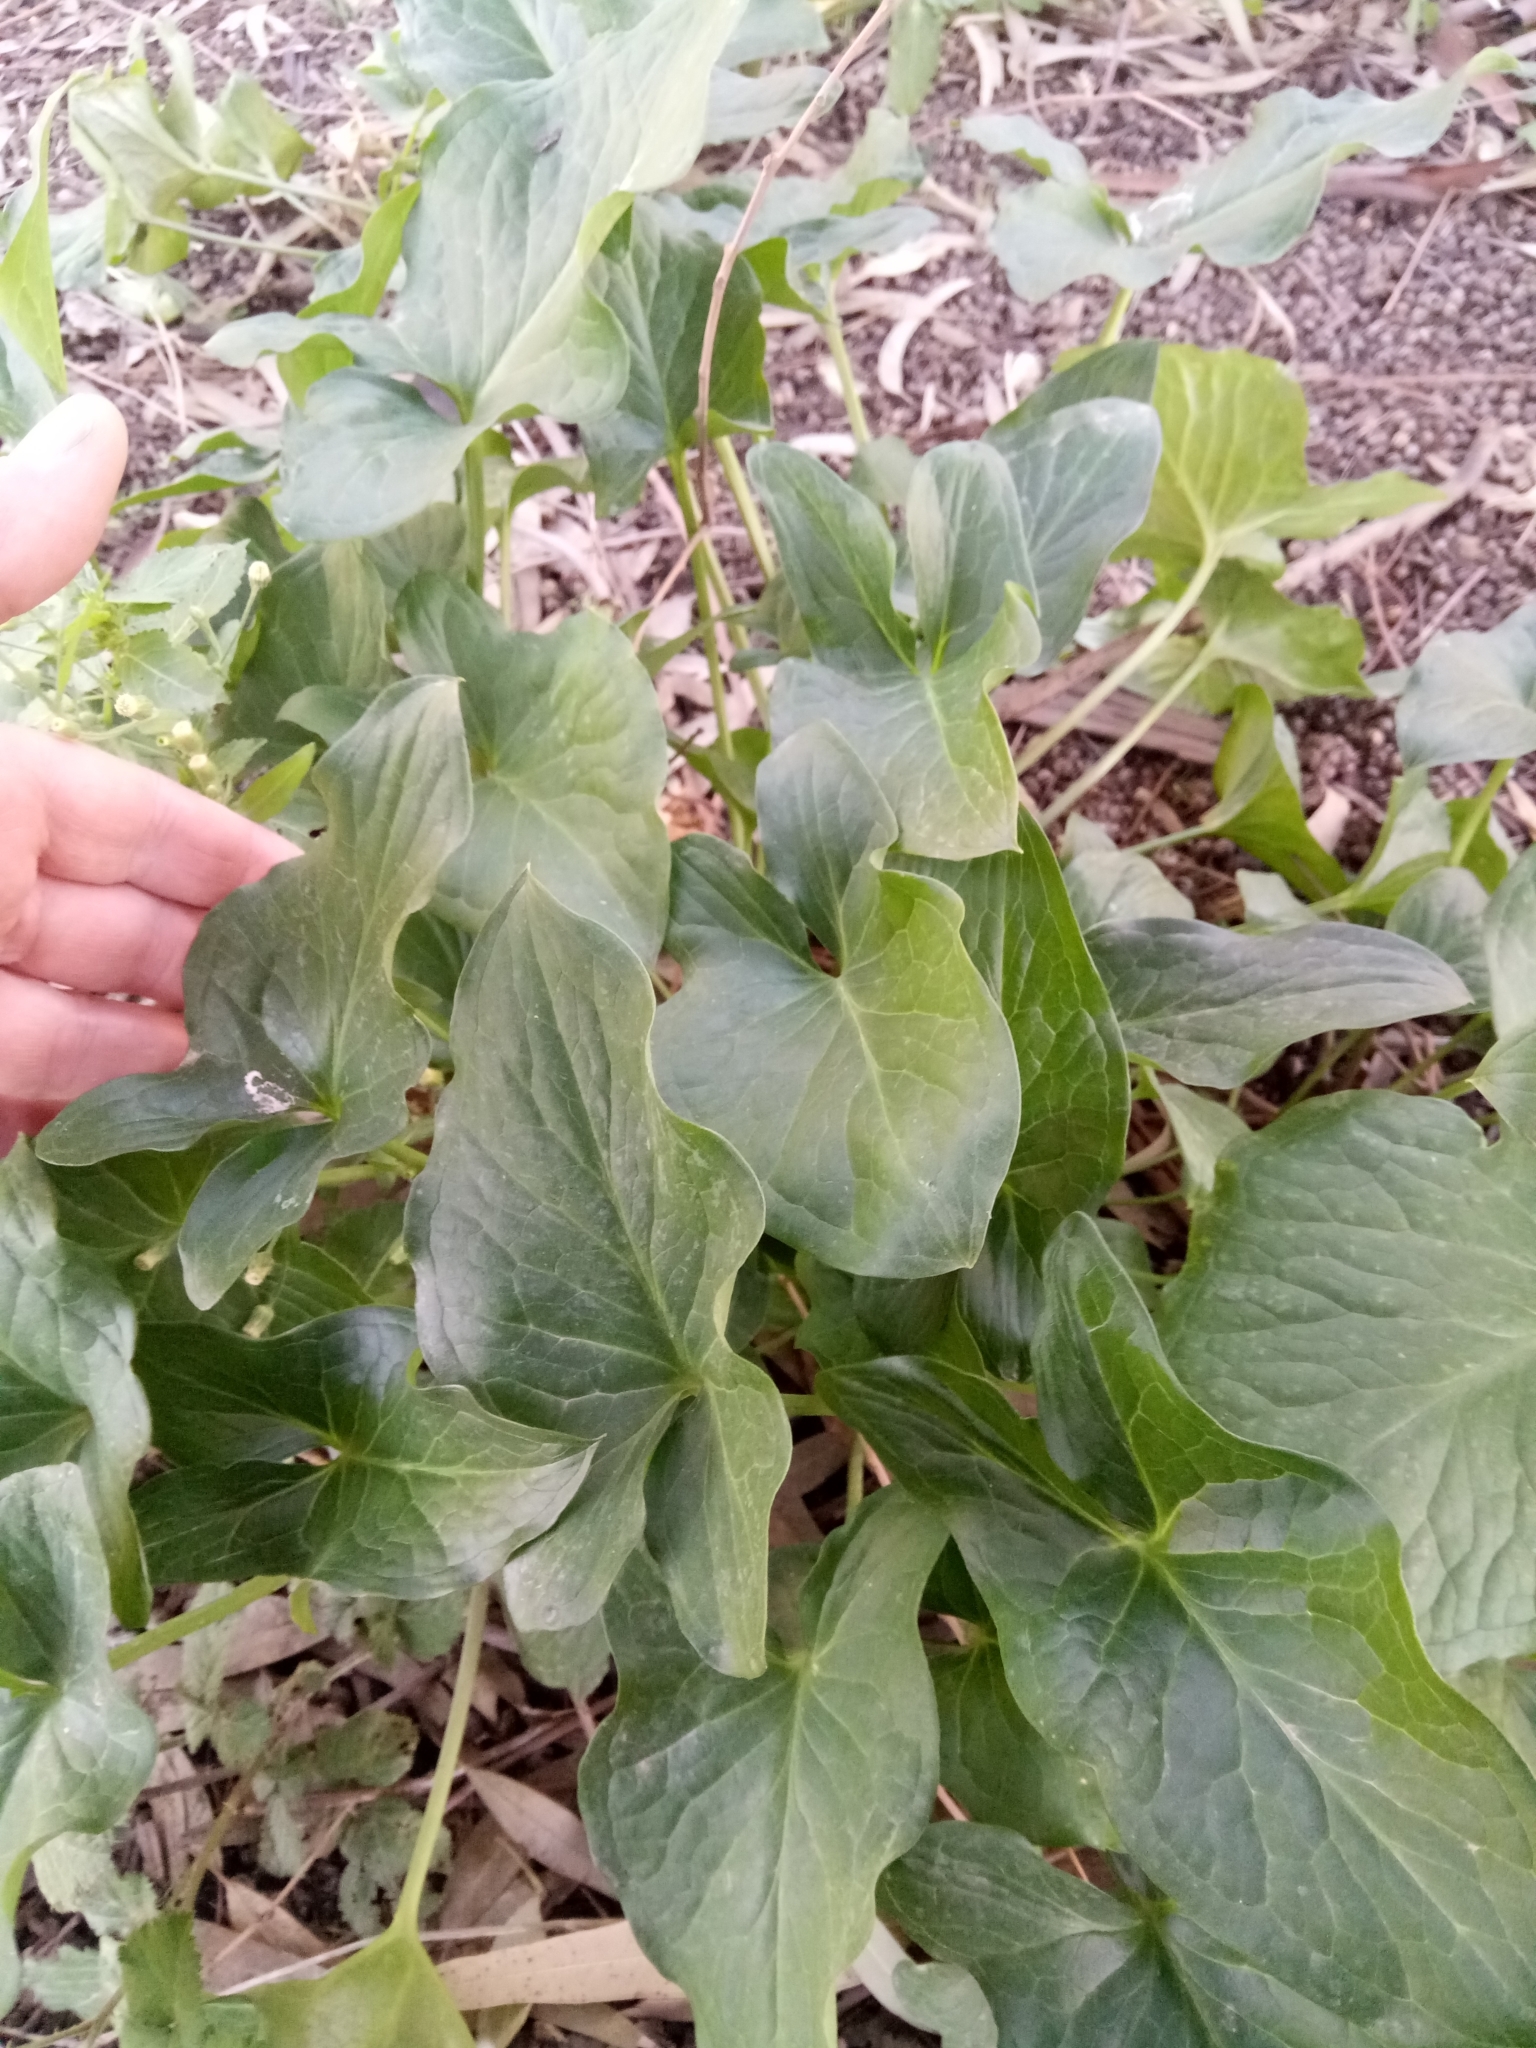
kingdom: Plantae
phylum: Tracheophyta
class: Liliopsida
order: Alismatales
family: Araceae
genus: Arum
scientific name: Arum italicum
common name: Italian lords-and-ladies
